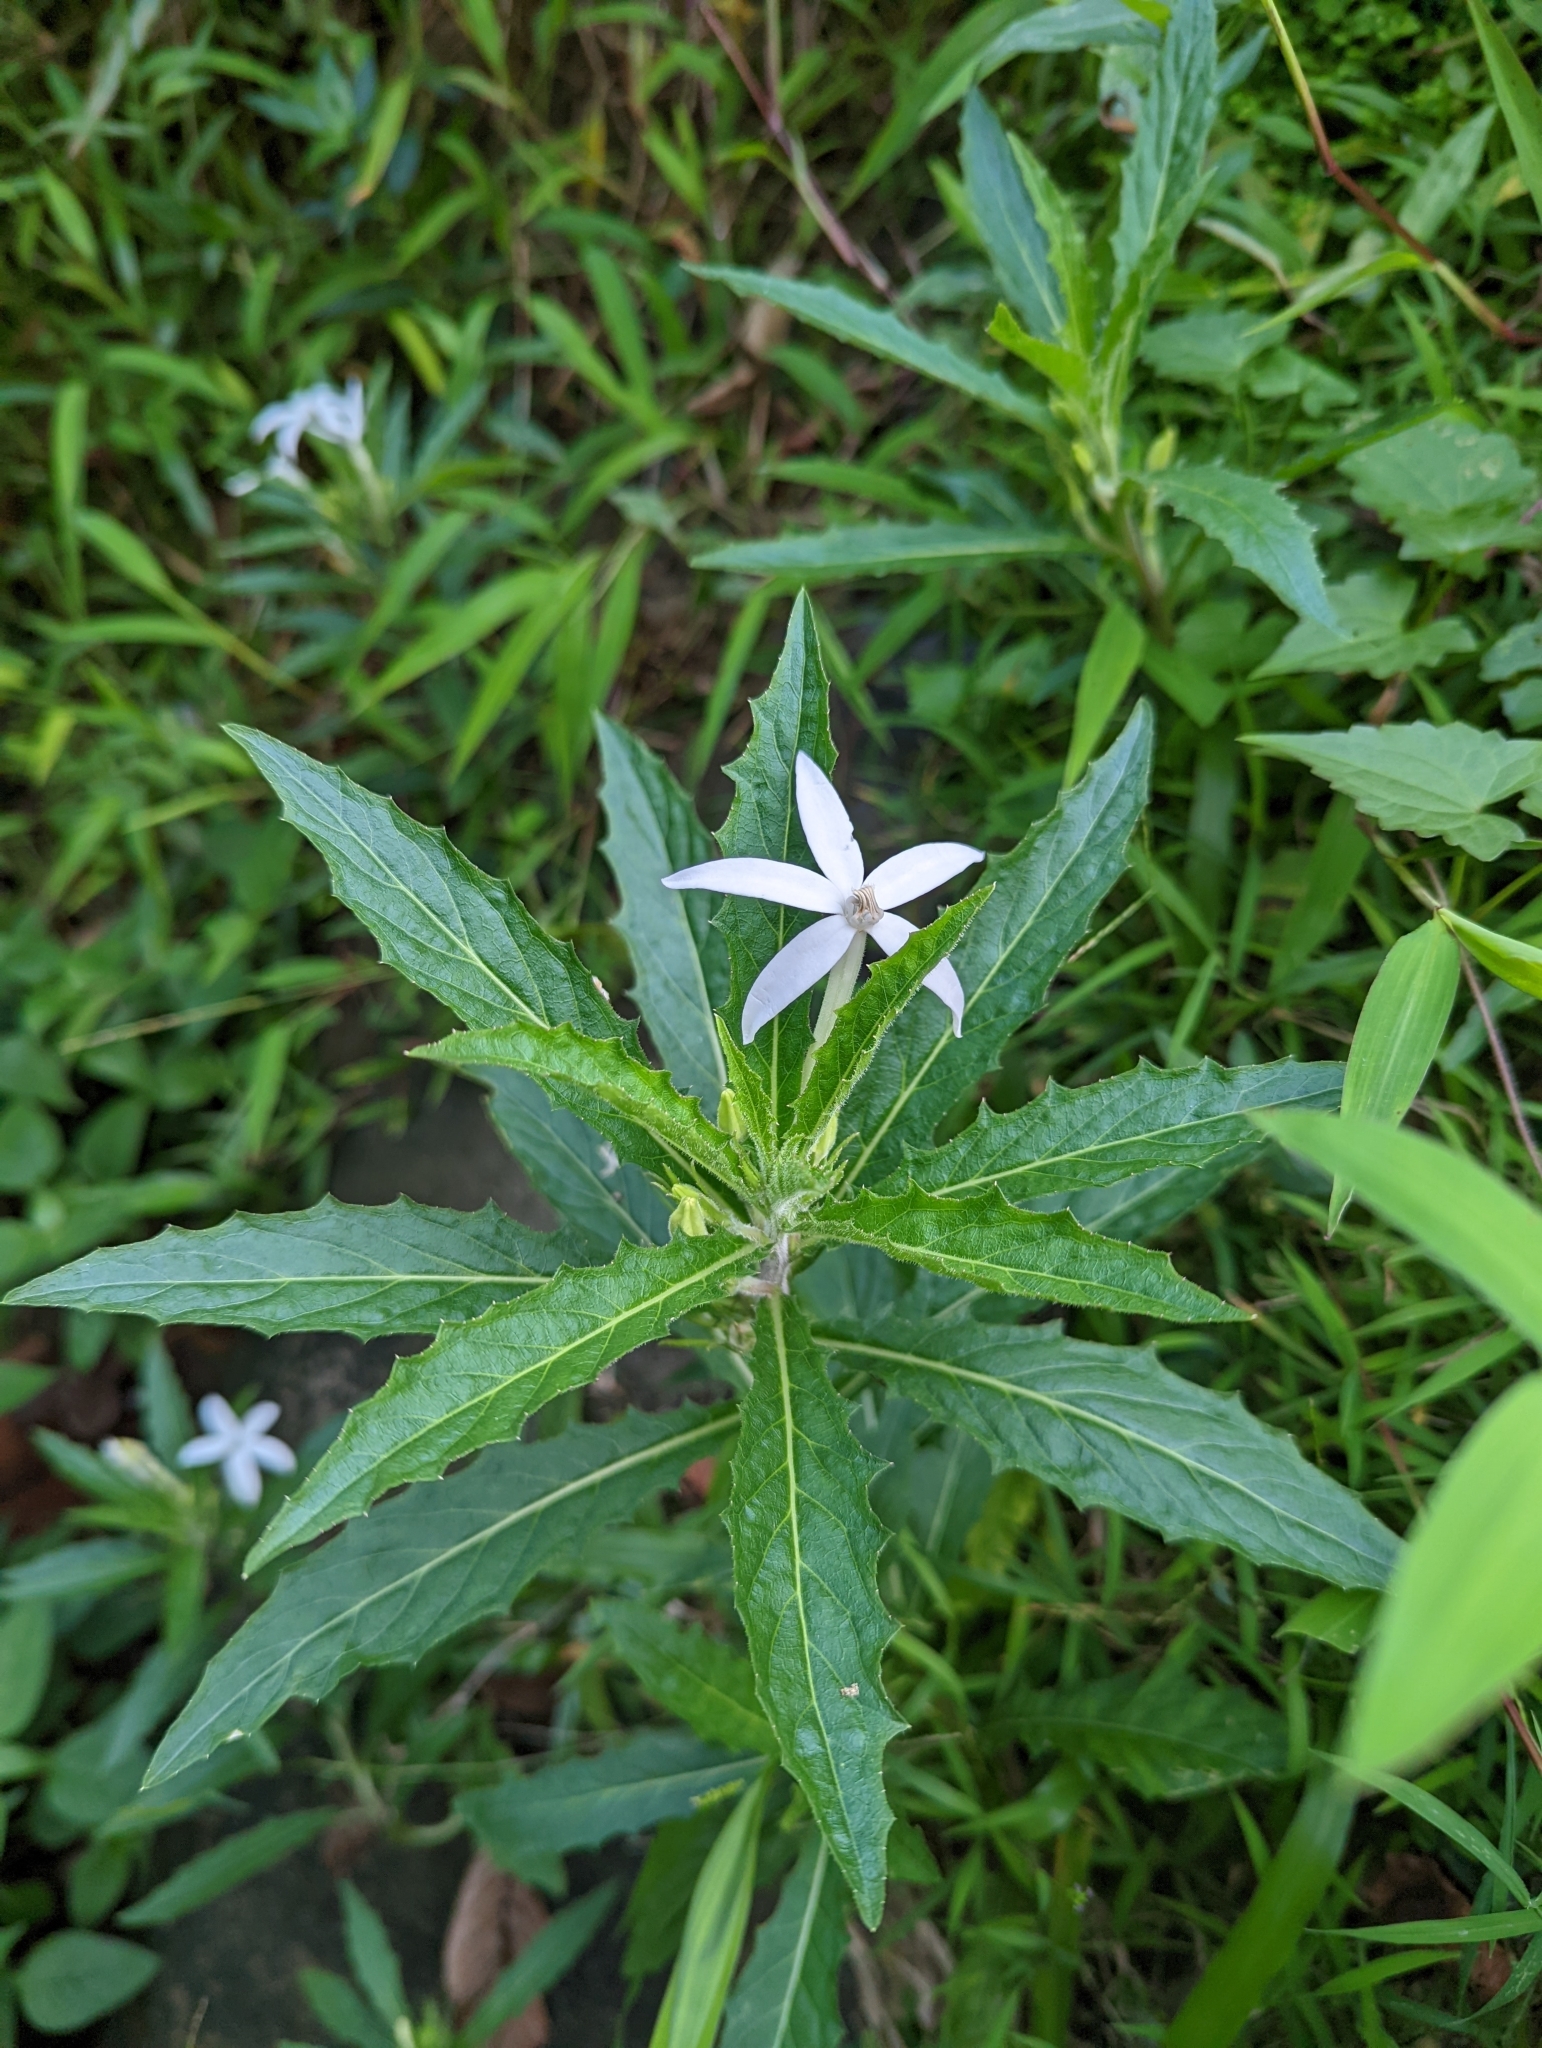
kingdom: Plantae
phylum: Tracheophyta
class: Magnoliopsida
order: Asterales
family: Campanulaceae
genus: Hippobroma
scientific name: Hippobroma longiflora
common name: Madamfate
